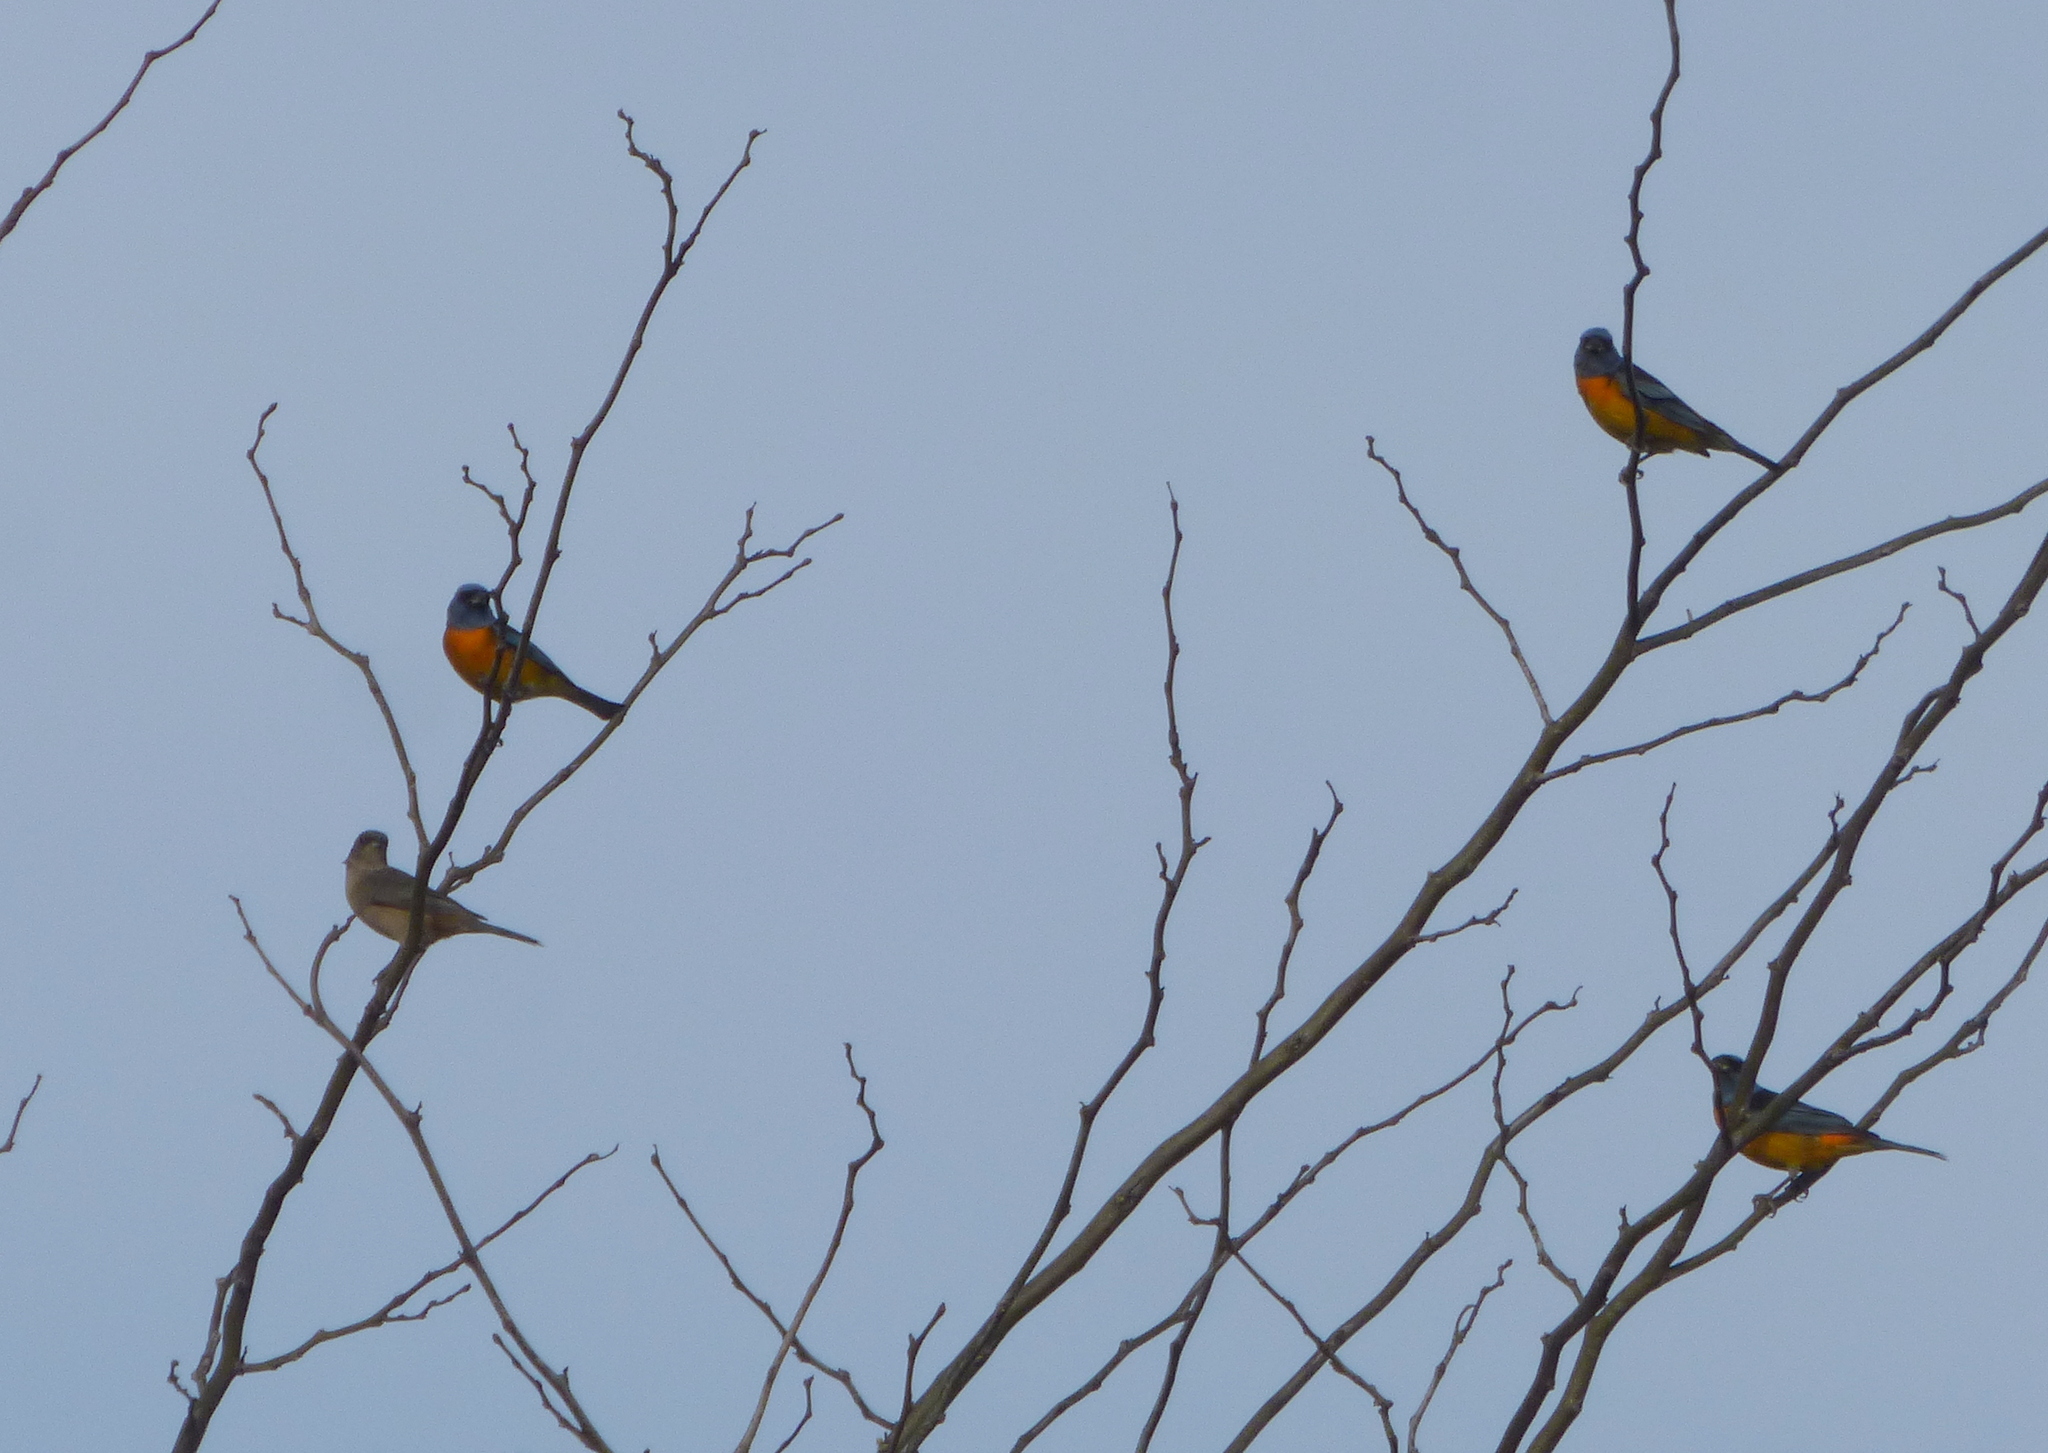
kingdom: Animalia
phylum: Chordata
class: Aves
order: Passeriformes
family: Thraupidae
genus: Rauenia
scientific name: Rauenia bonariensis
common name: Blue-and-yellow tanager
